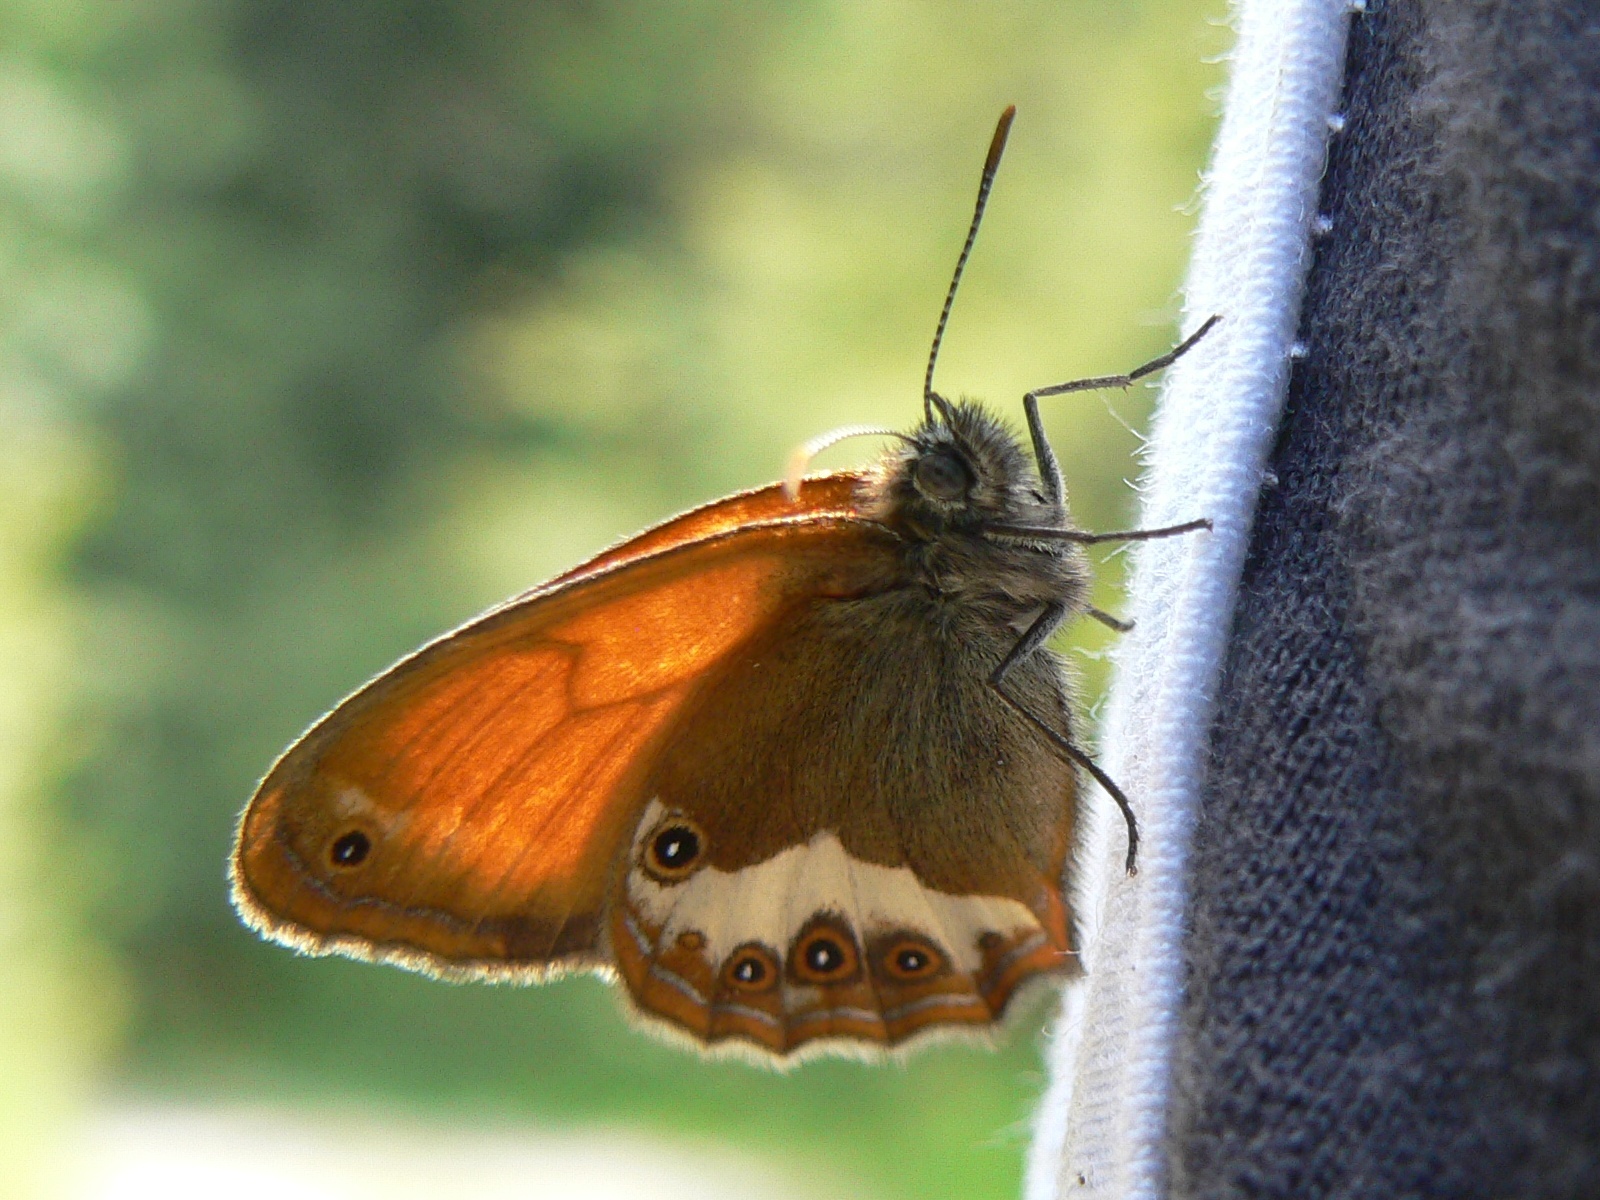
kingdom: Animalia
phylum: Arthropoda
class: Insecta
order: Lepidoptera
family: Nymphalidae
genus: Coenonympha
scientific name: Coenonympha arcania
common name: Pearly heath
